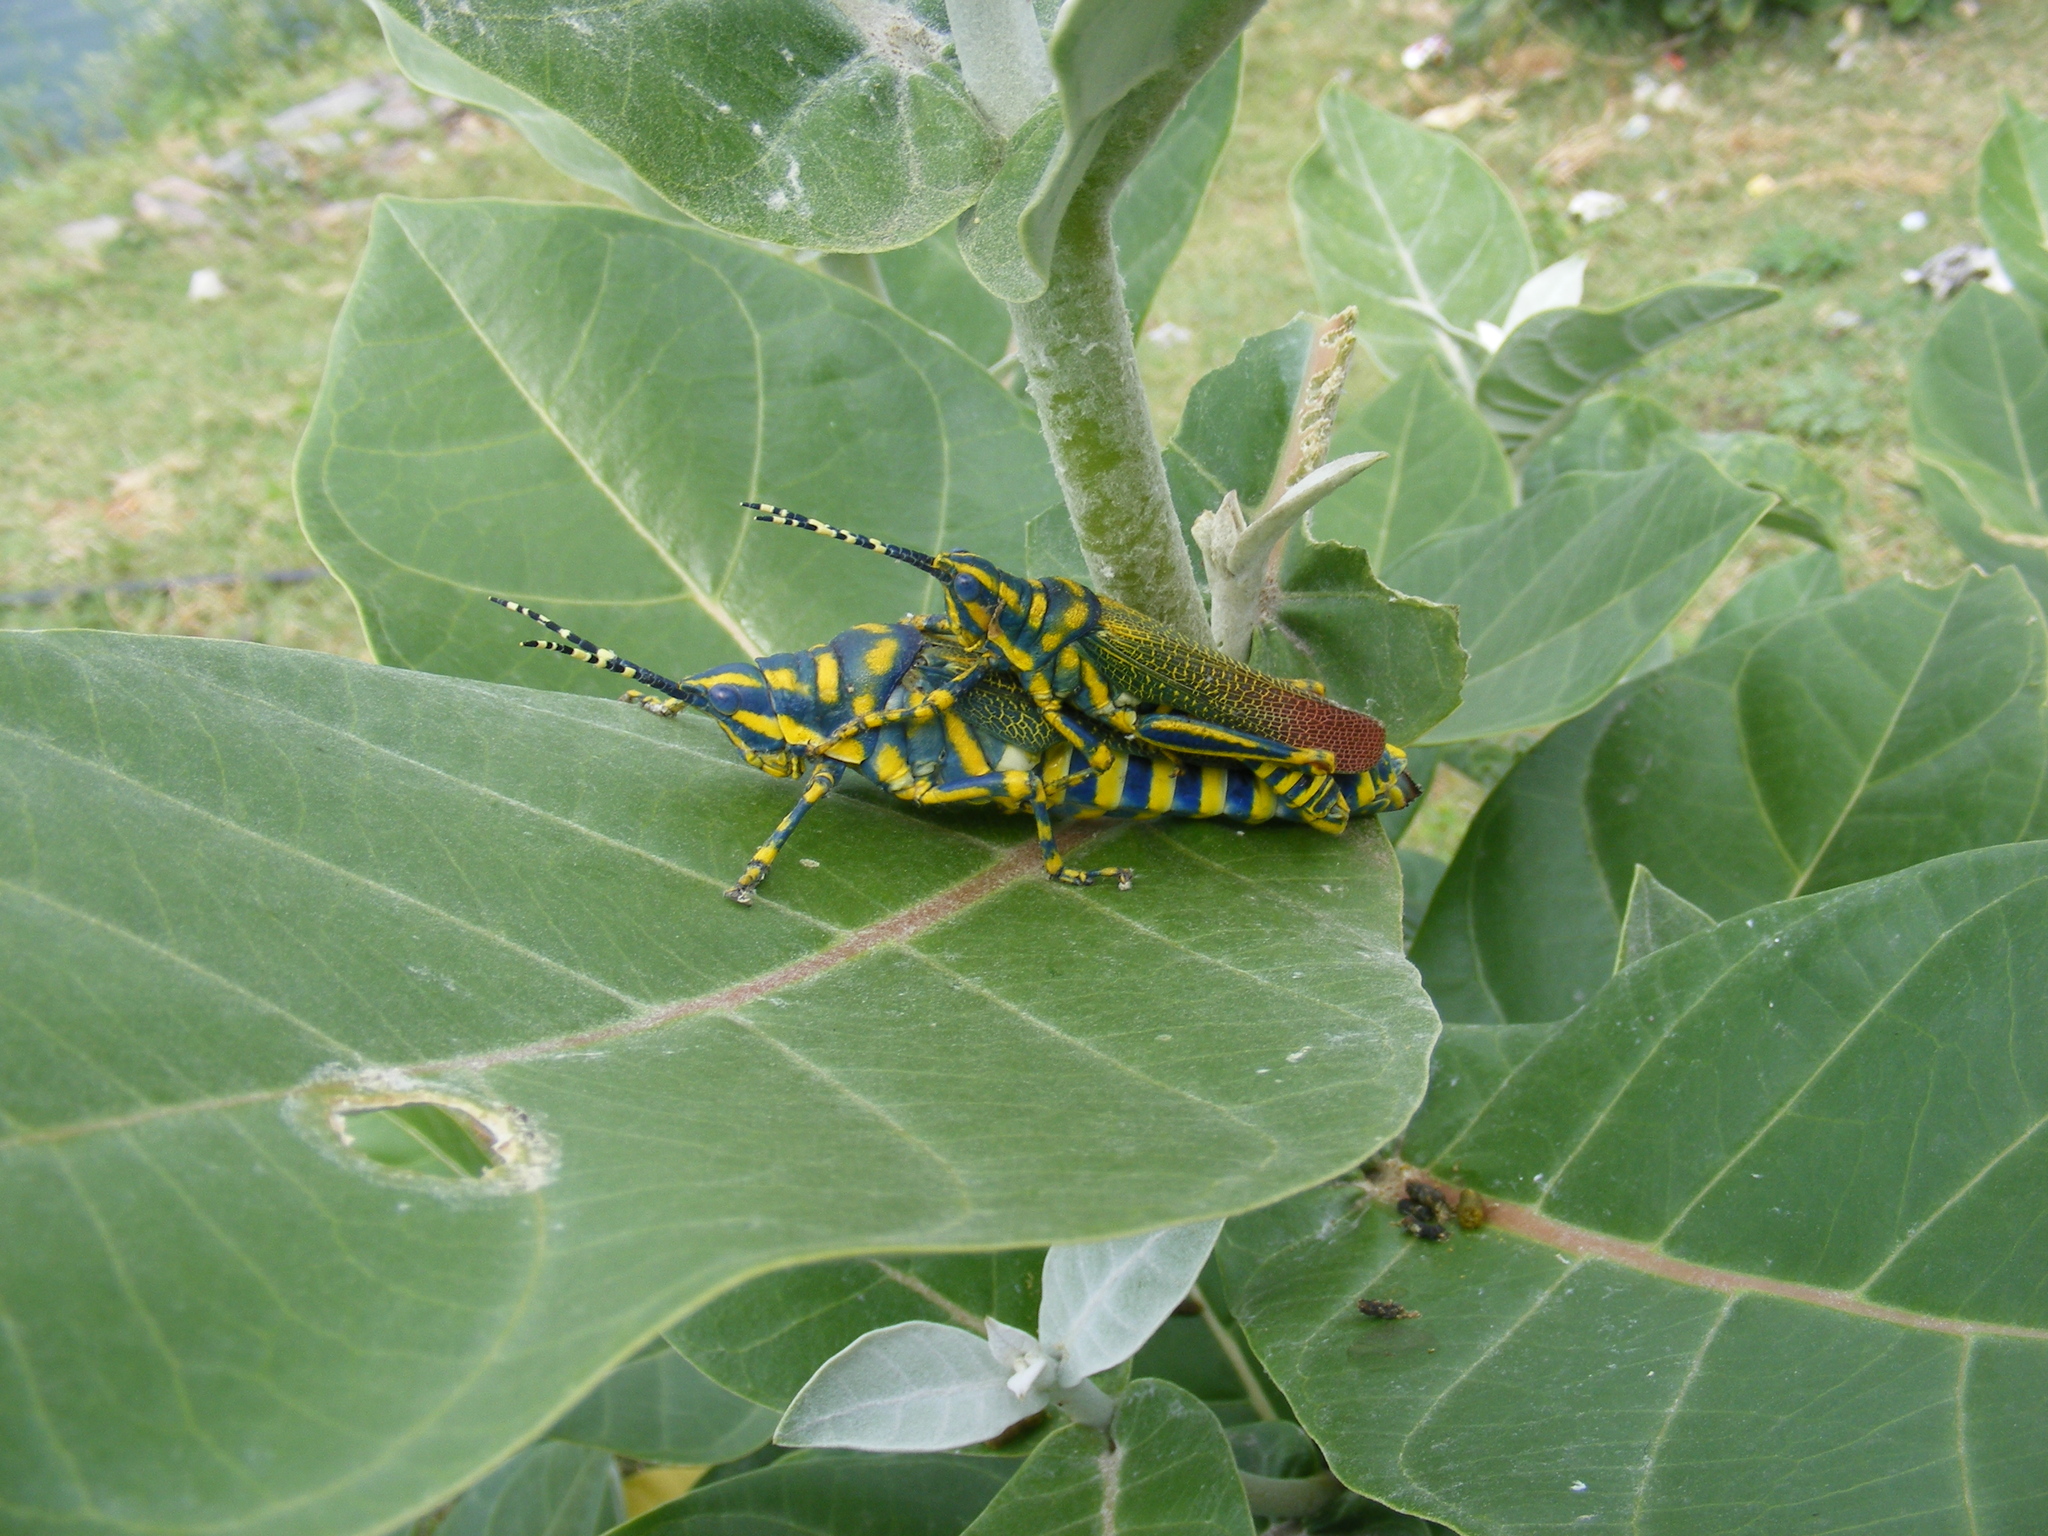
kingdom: Animalia
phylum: Arthropoda
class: Insecta
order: Orthoptera
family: Pyrgomorphidae
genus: Poekilocerus
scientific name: Poekilocerus pictus
